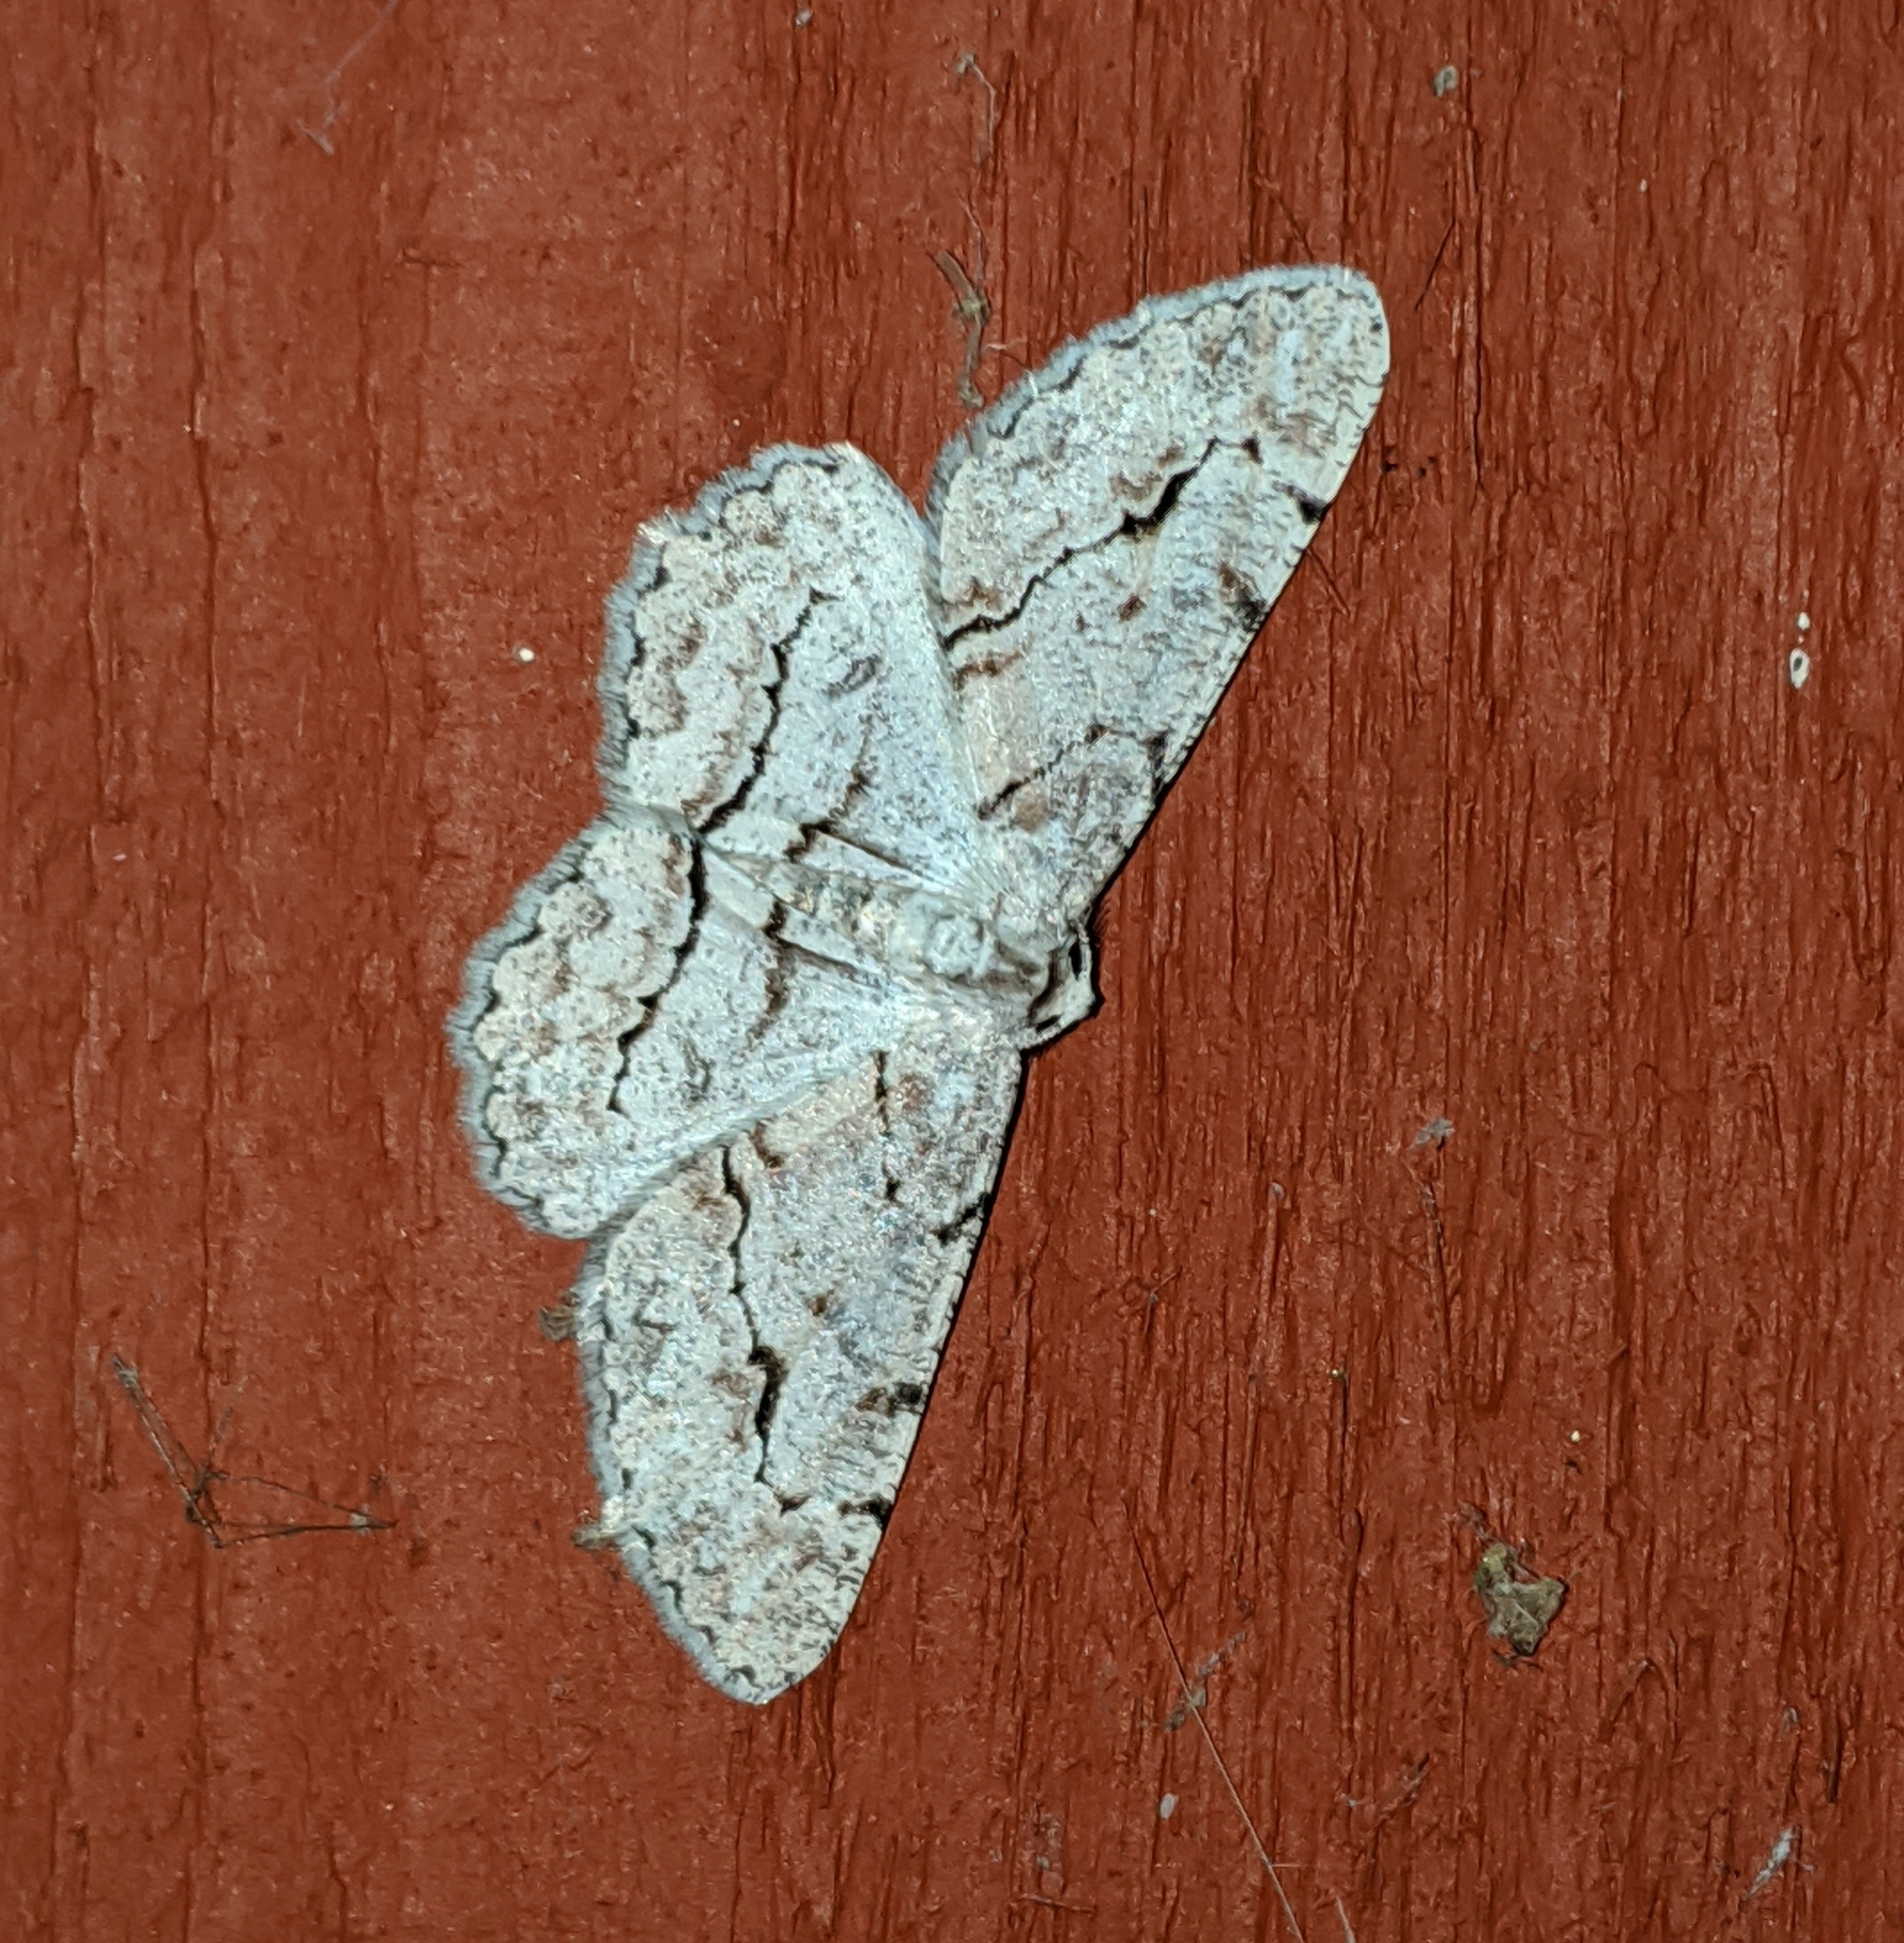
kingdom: Animalia
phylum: Arthropoda
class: Insecta
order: Lepidoptera
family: Geometridae
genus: Iridopsis
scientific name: Iridopsis emasculatum
